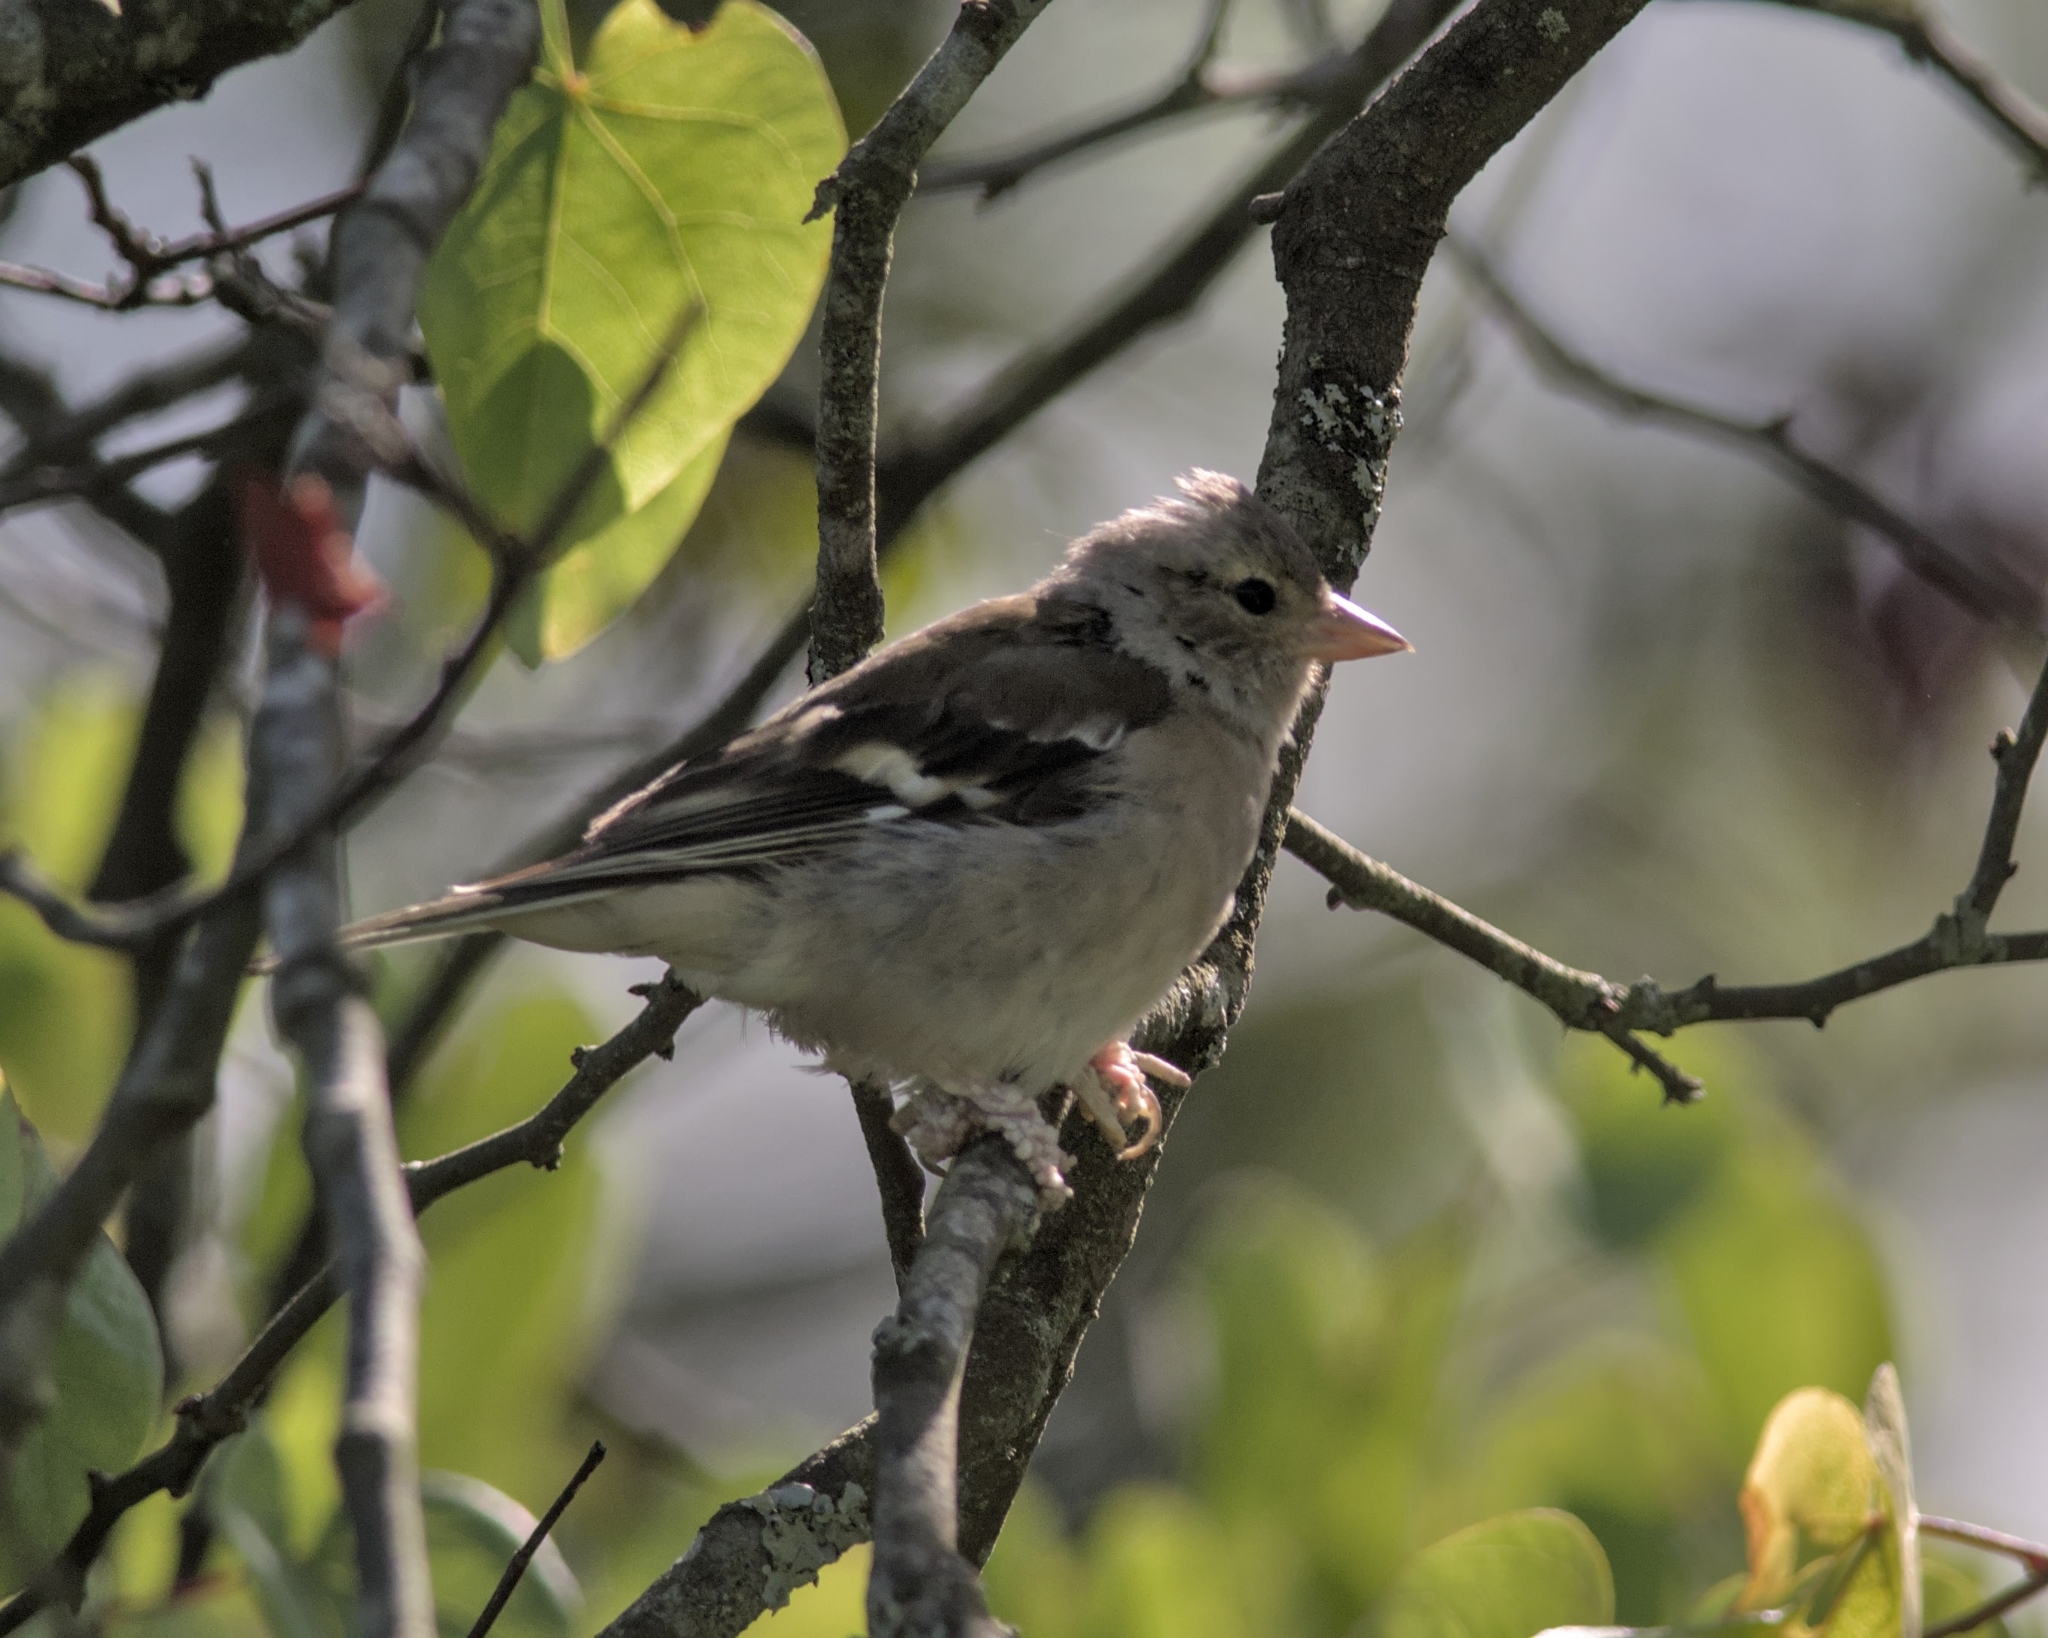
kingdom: Animalia
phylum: Chordata
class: Aves
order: Passeriformes
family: Fringillidae
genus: Fringilla
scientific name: Fringilla coelebs
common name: Common chaffinch
